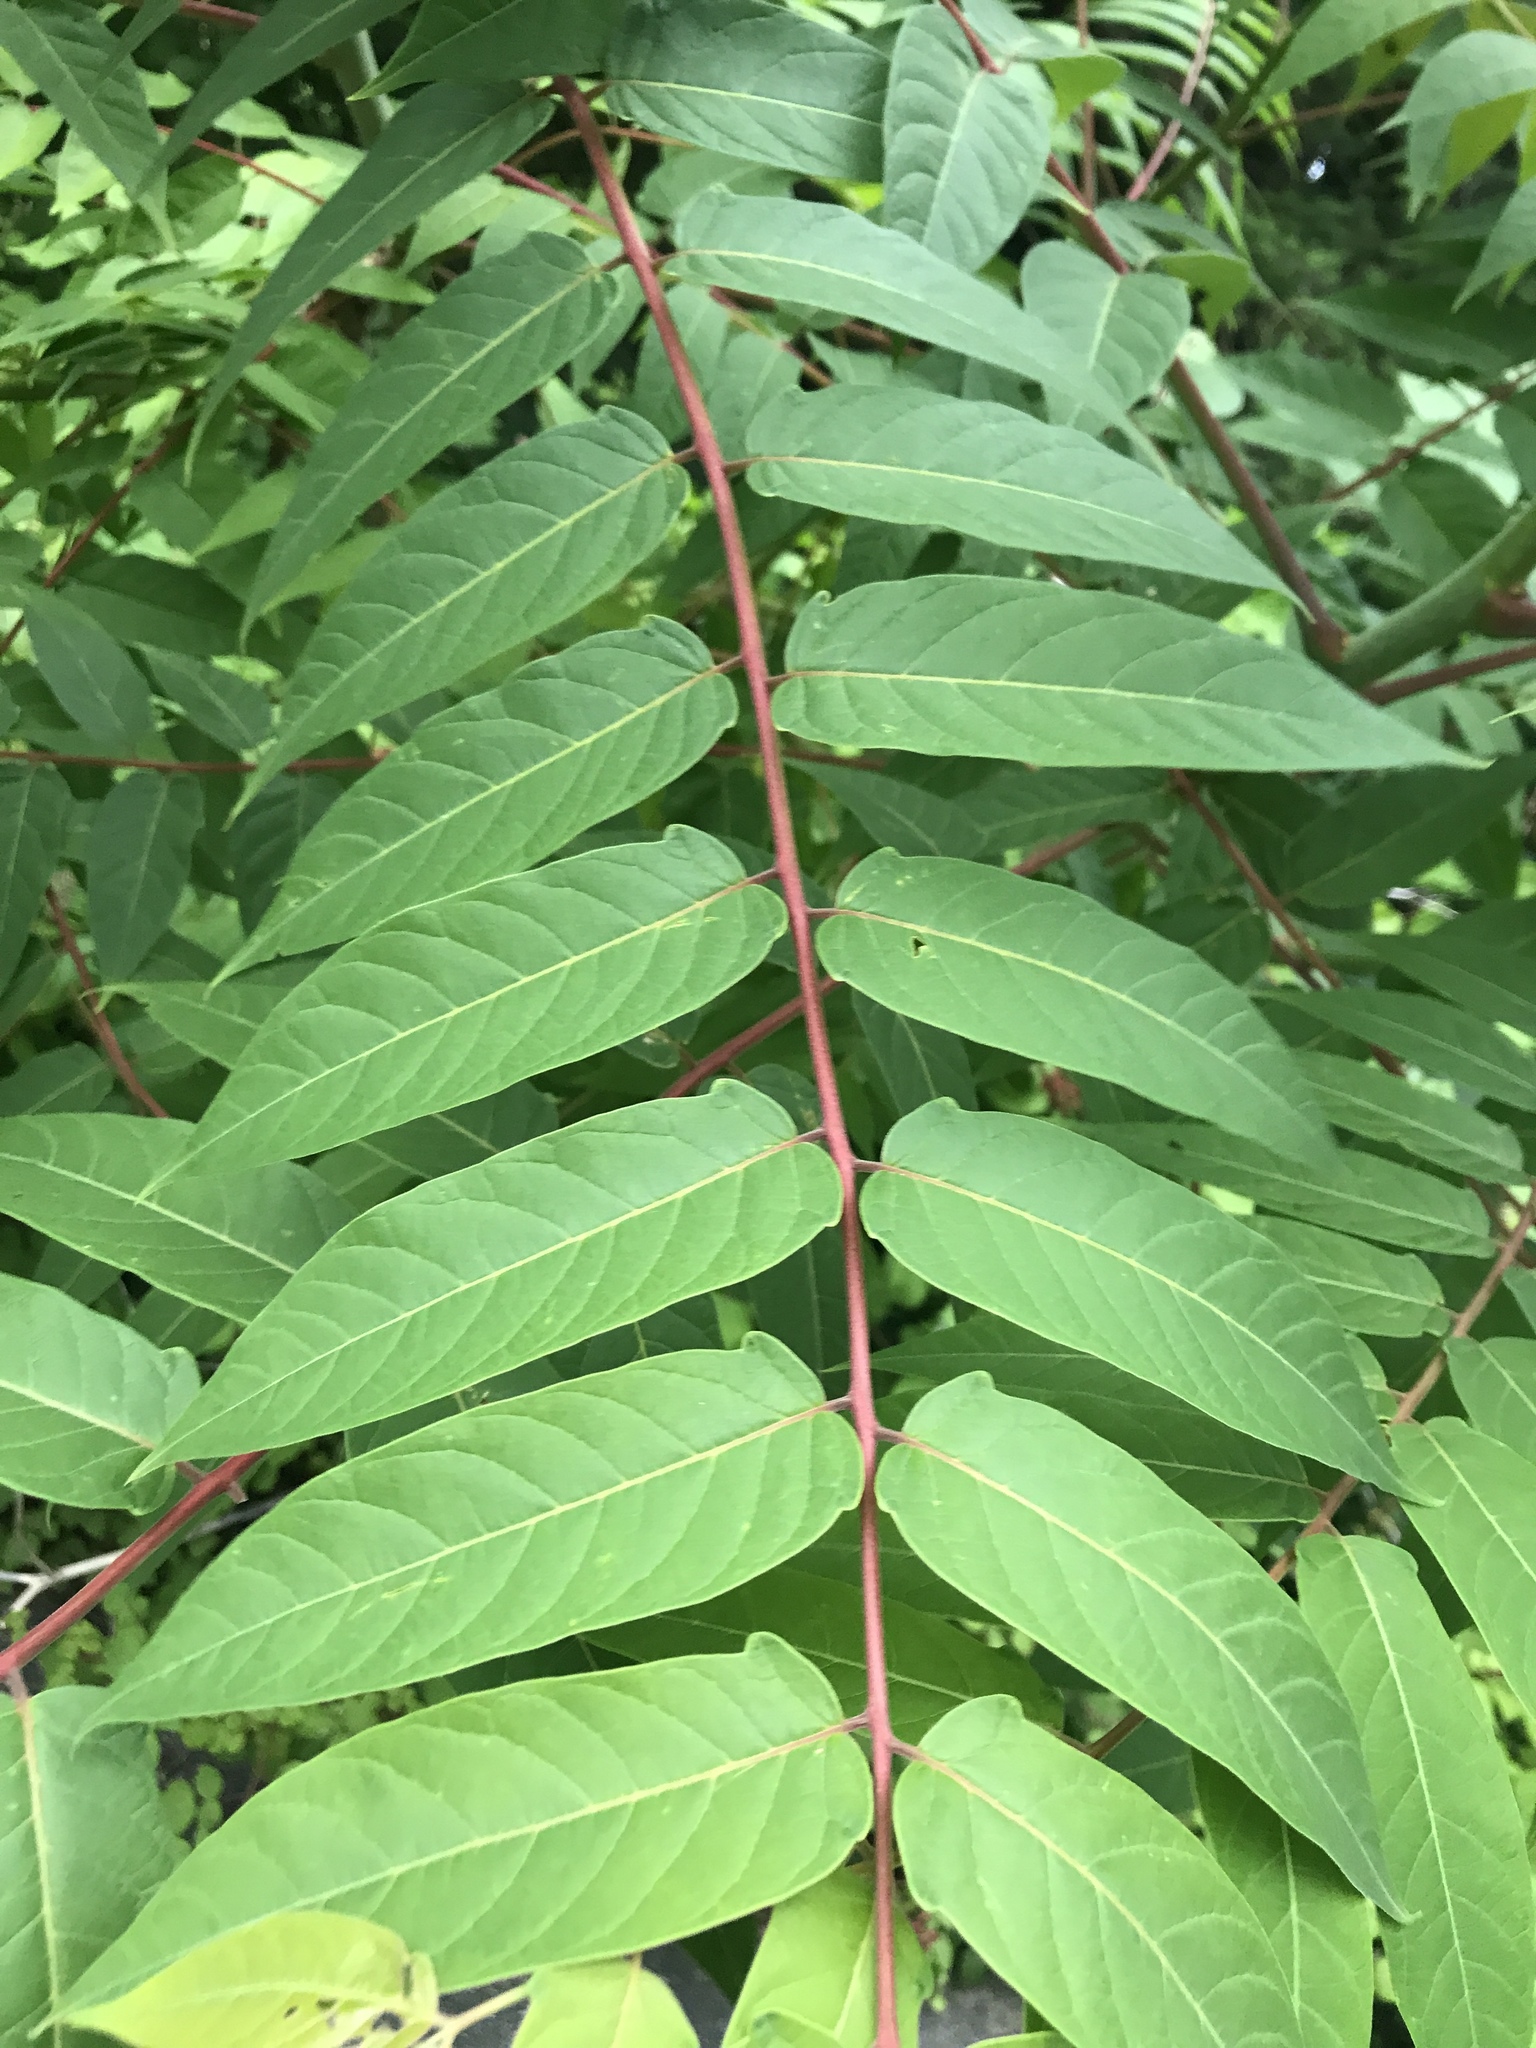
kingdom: Plantae
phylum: Tracheophyta
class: Magnoliopsida
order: Sapindales
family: Simaroubaceae
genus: Ailanthus
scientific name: Ailanthus altissima
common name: Tree-of-heaven
